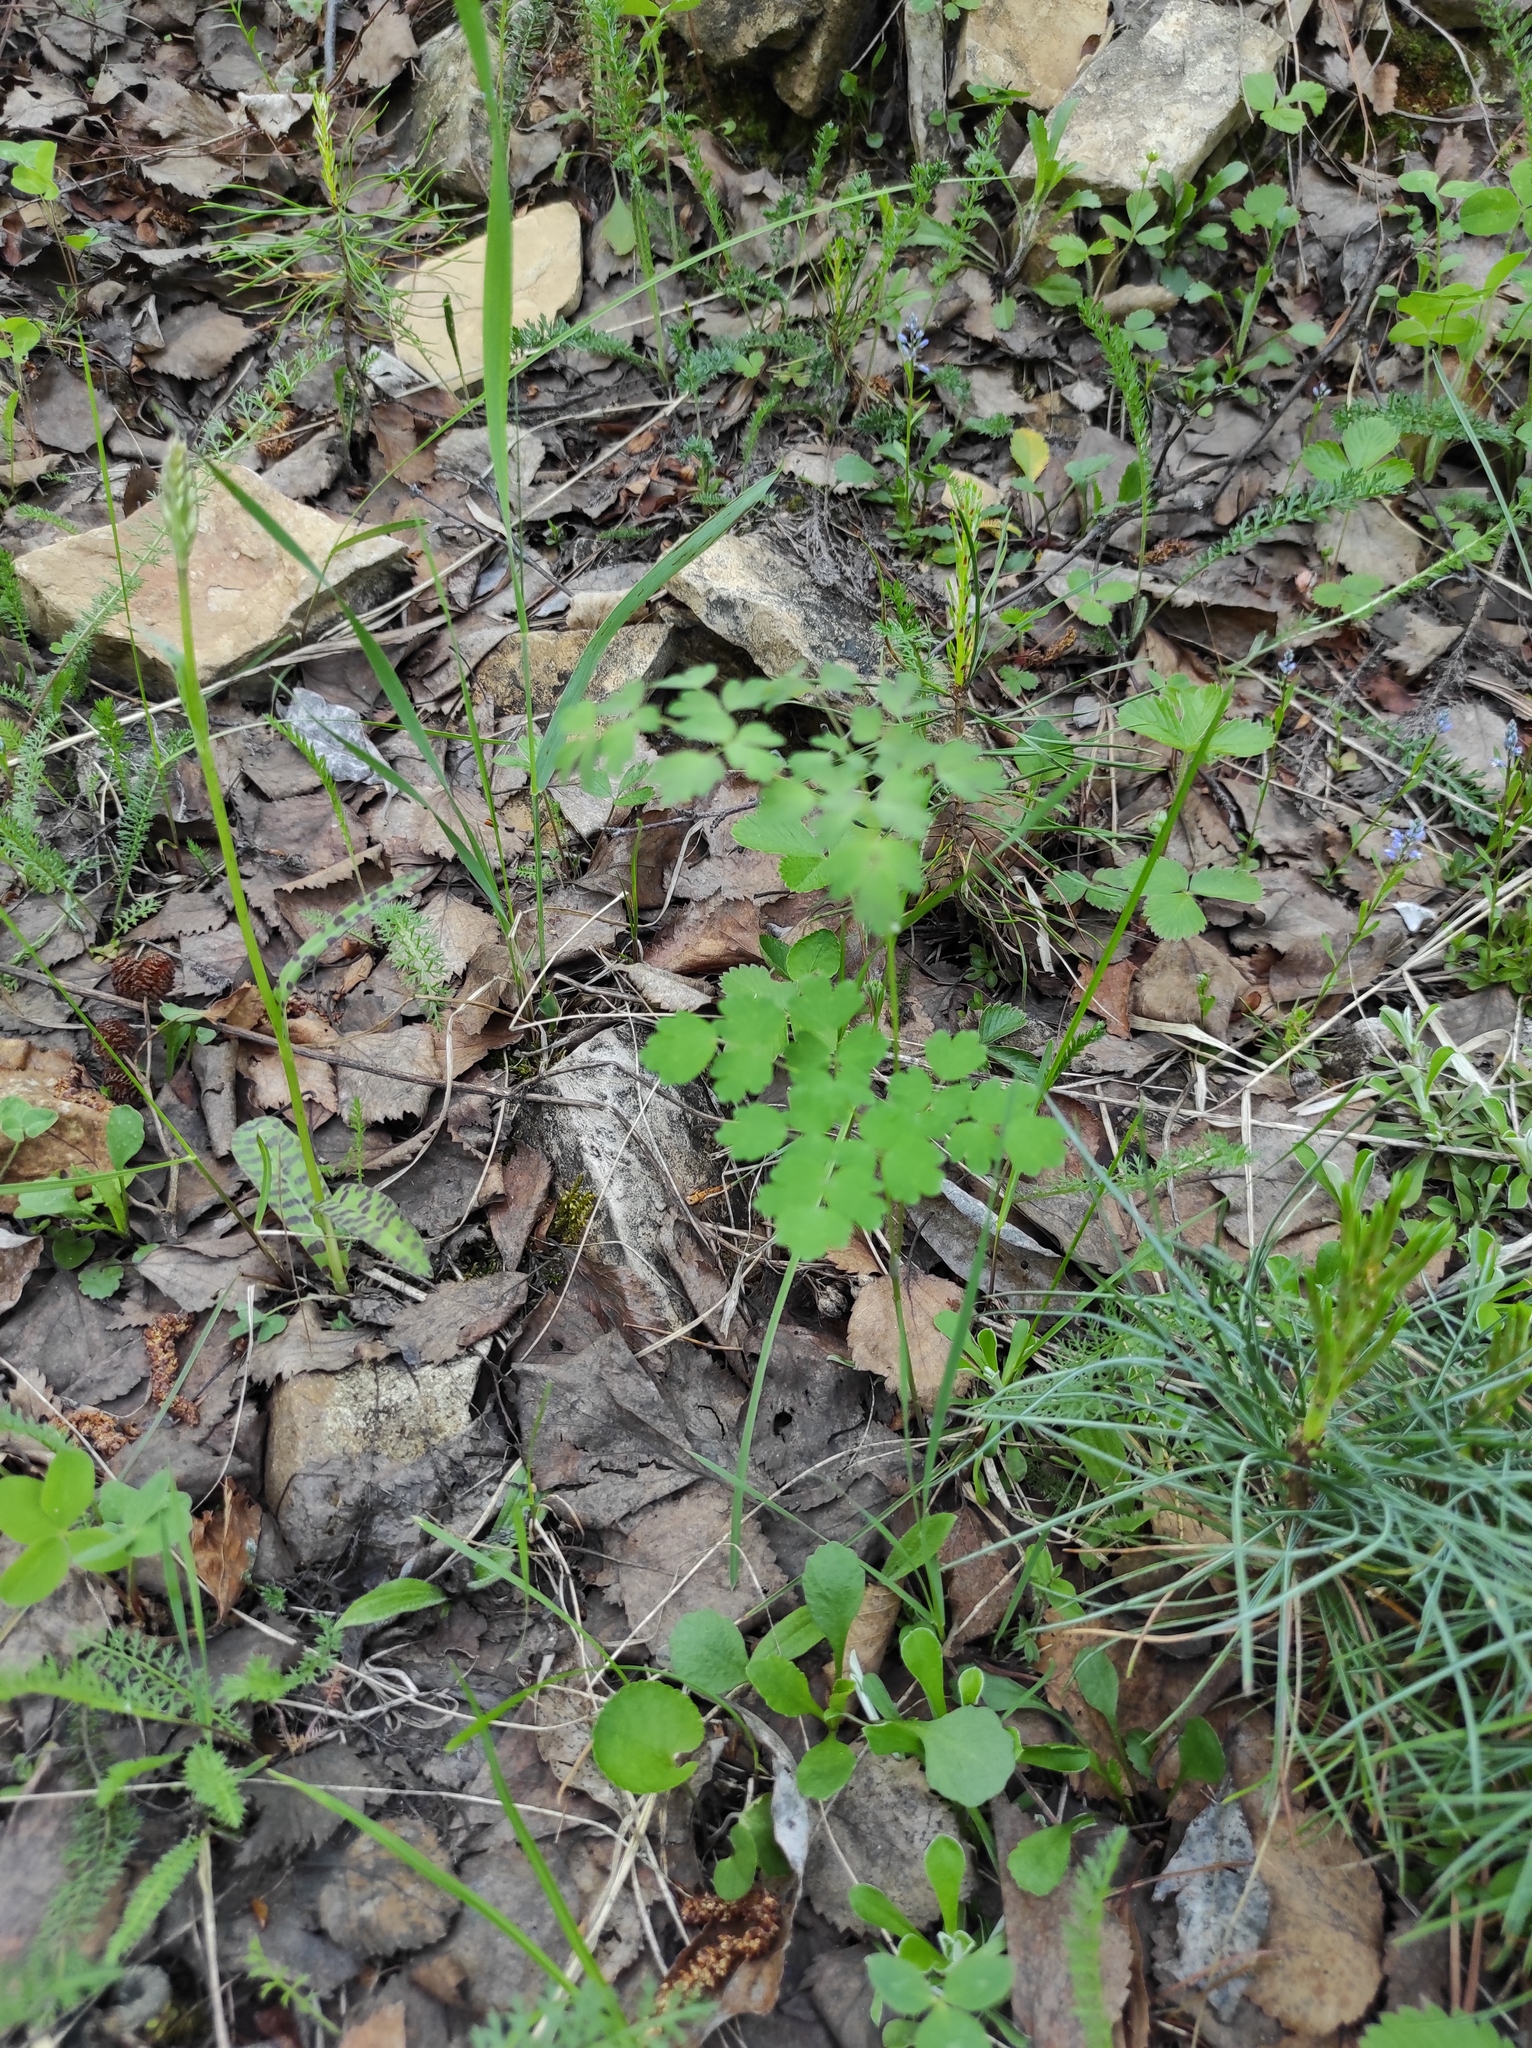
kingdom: Plantae
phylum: Tracheophyta
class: Liliopsida
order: Asparagales
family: Orchidaceae
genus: Dactylorhiza
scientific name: Dactylorhiza maculata
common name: Heath spotted-orchid
